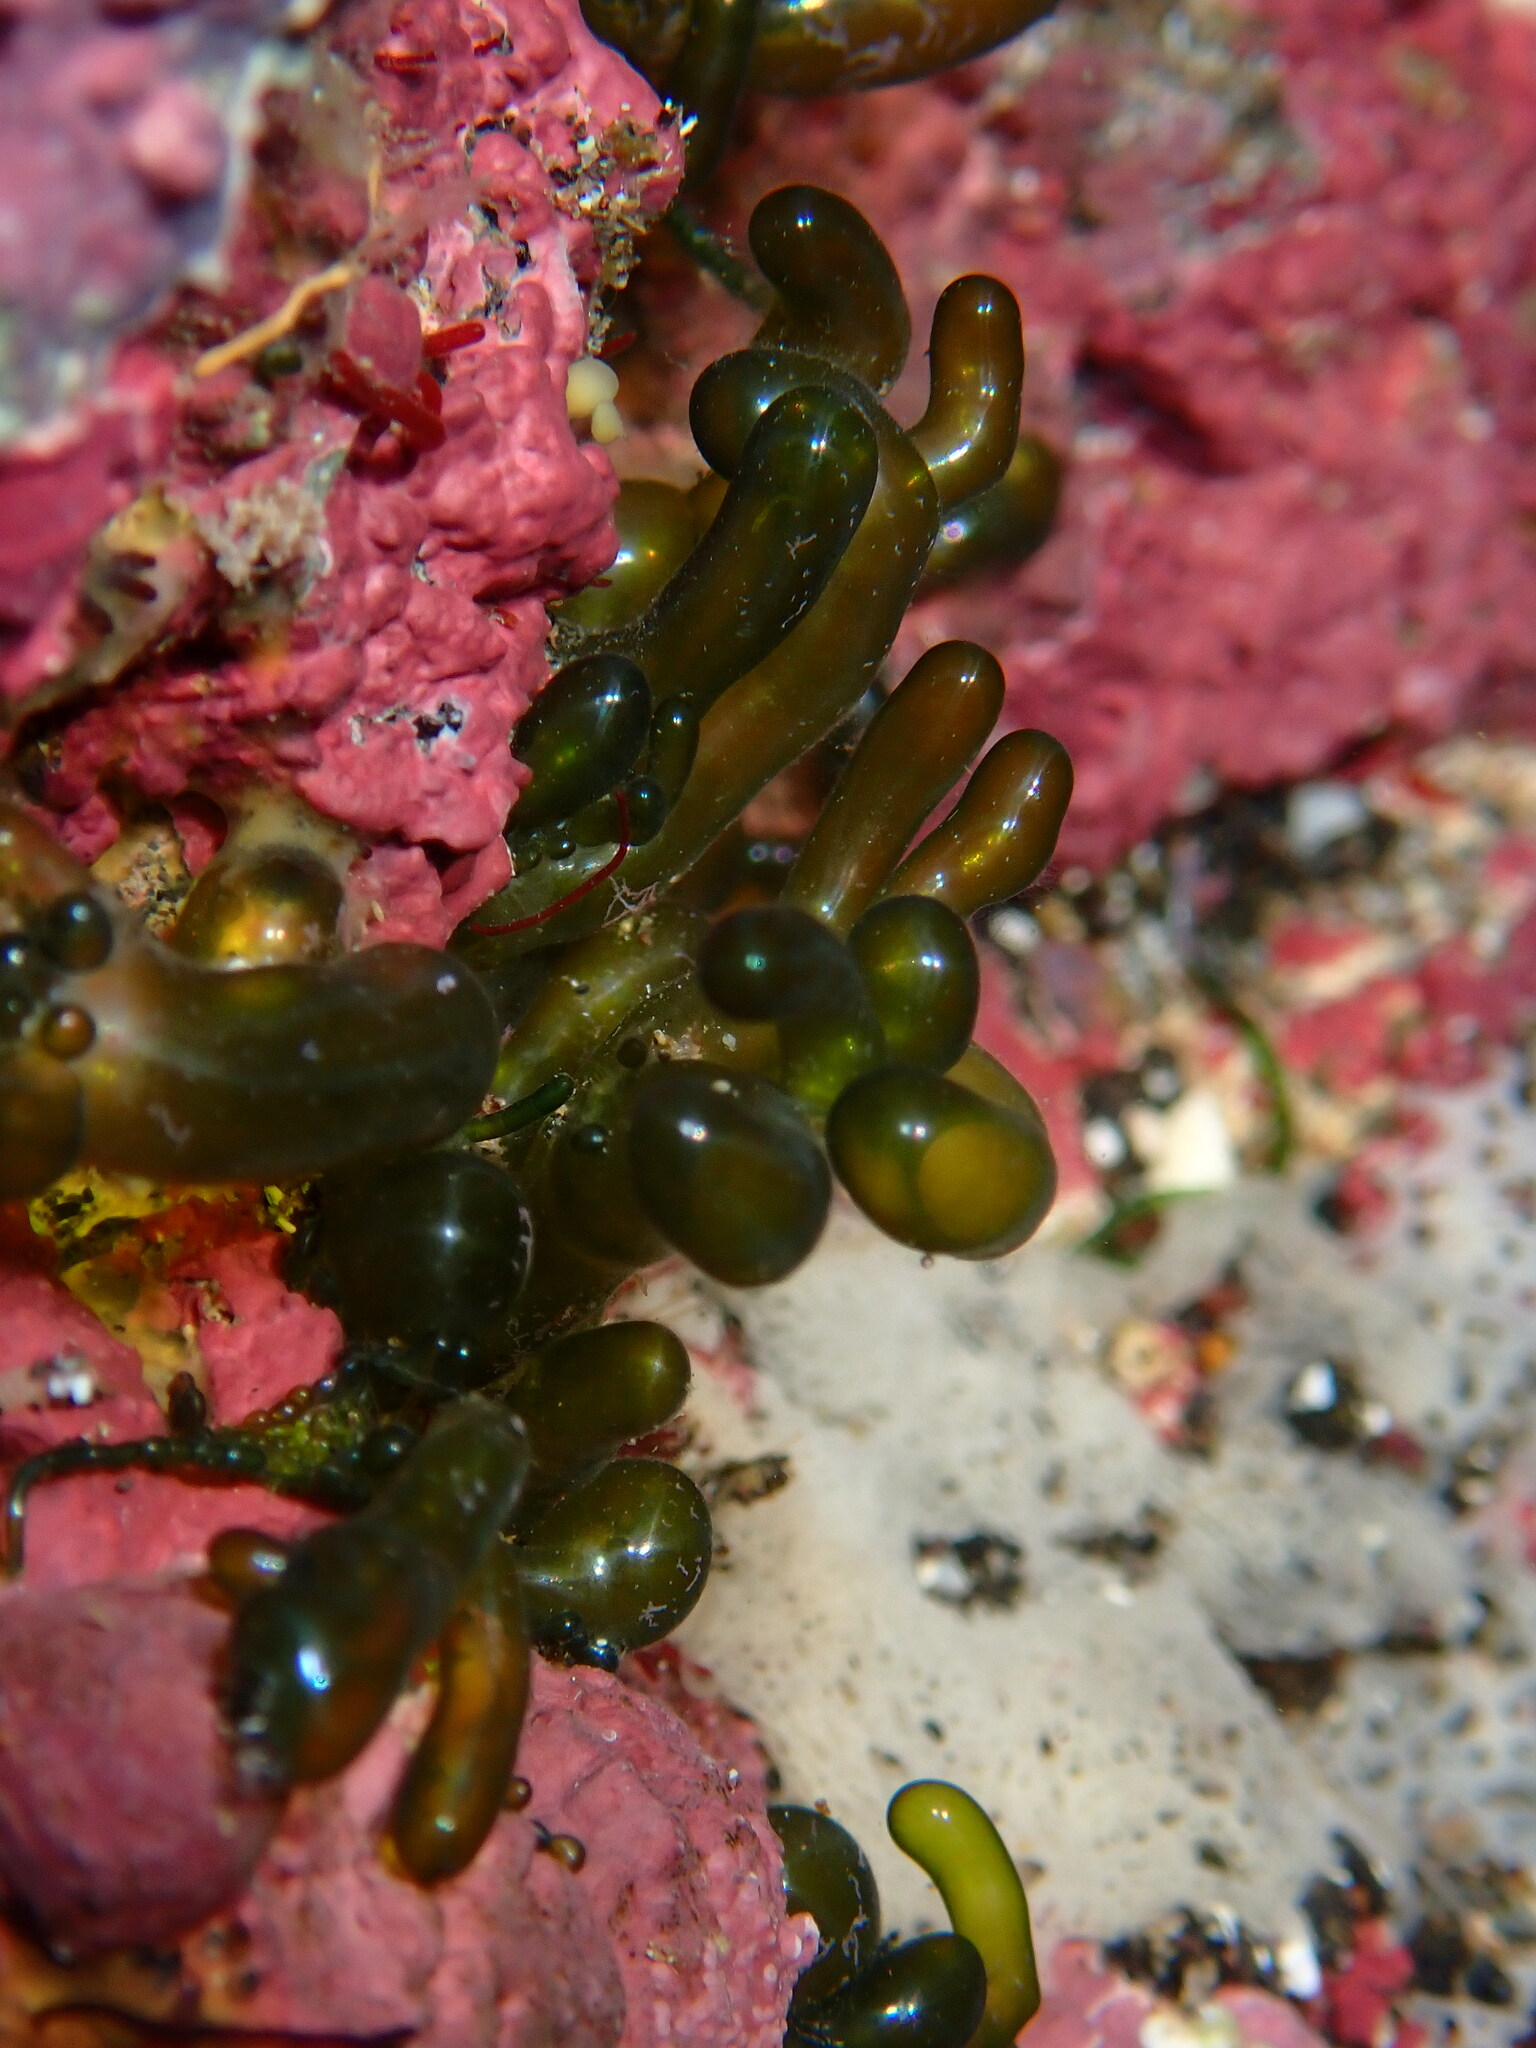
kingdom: Plantae
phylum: Chlorophyta
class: Ulvophyceae
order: Siphonocladales
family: Valoniaceae
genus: Valonia
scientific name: Valonia utricularis
